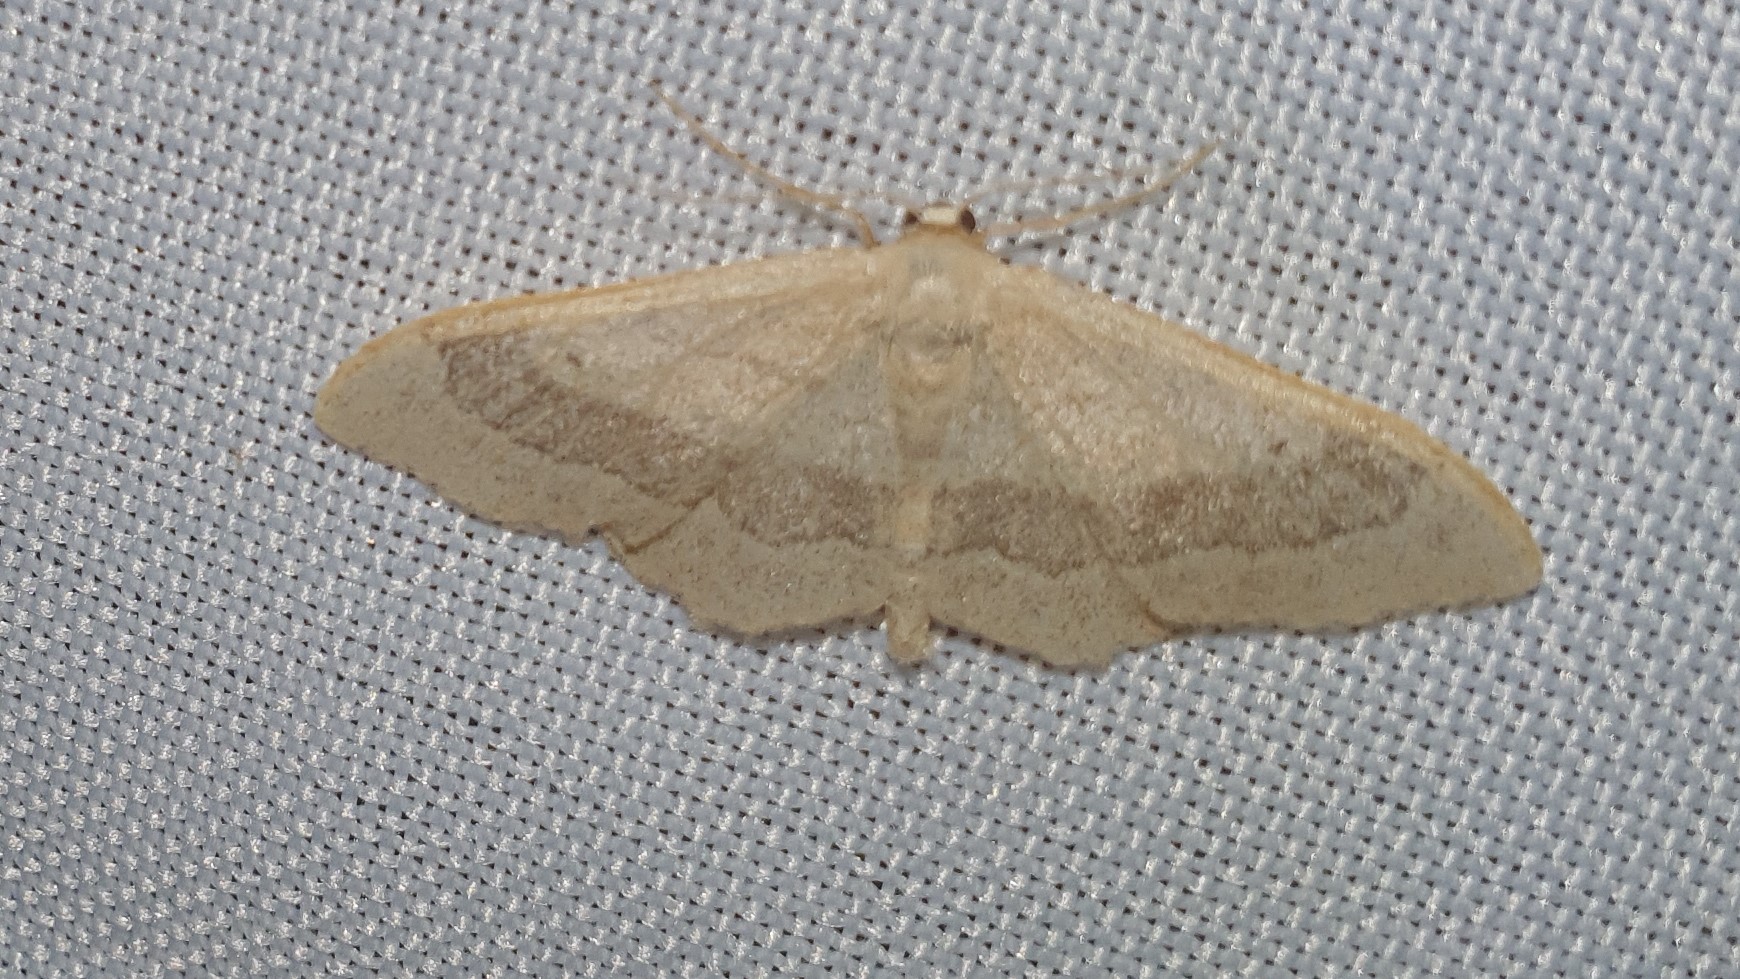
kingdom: Animalia
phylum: Arthropoda
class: Insecta
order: Lepidoptera
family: Geometridae
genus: Idaea
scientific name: Idaea aversata
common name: Riband wave
